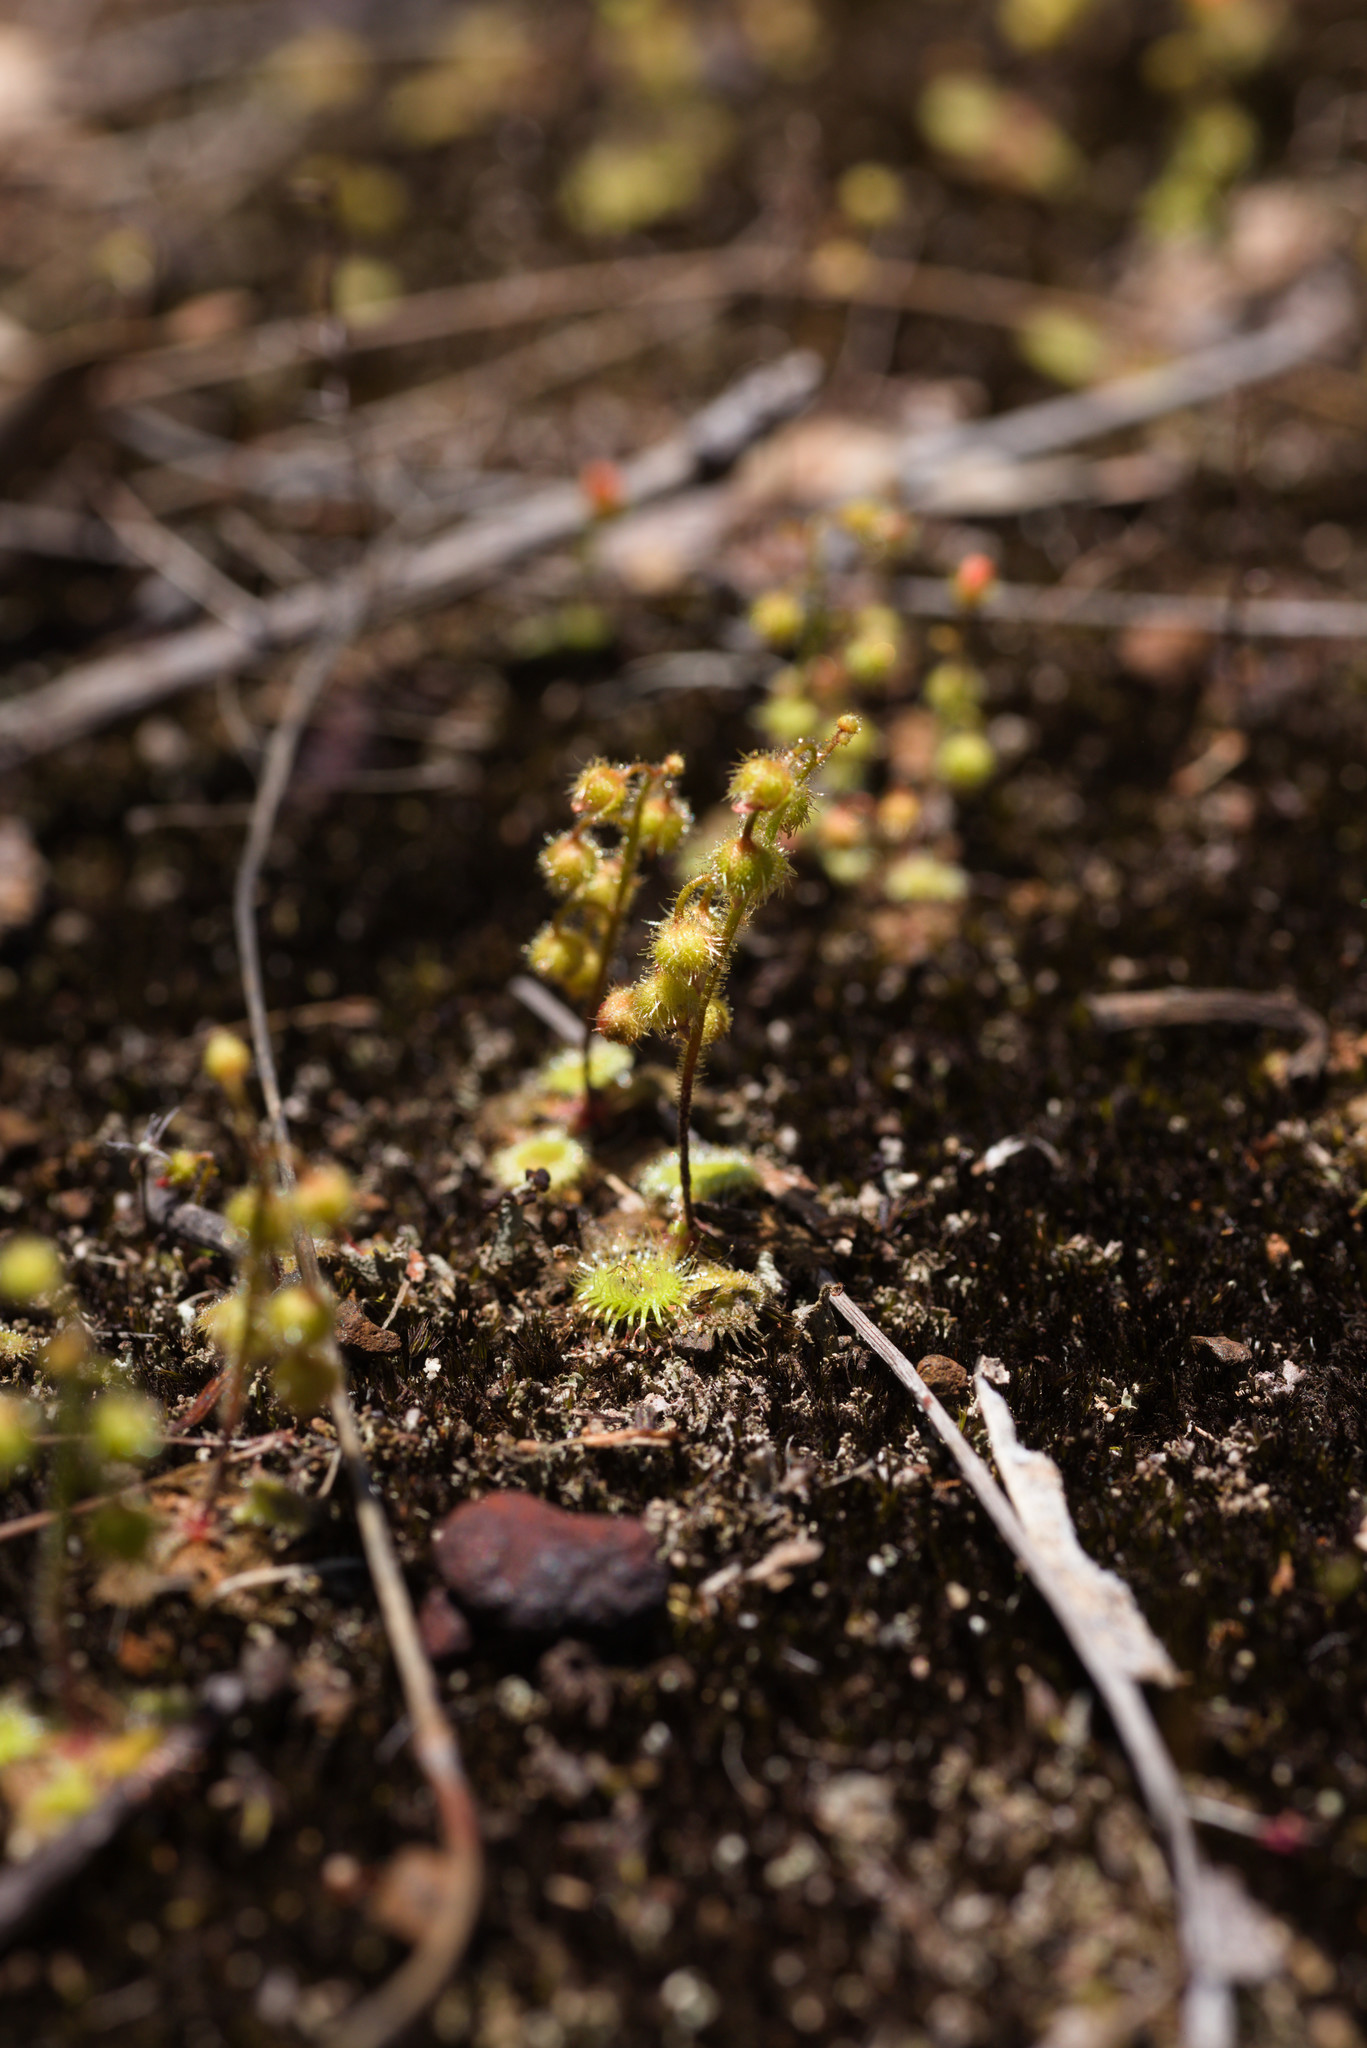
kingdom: Plantae
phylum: Tracheophyta
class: Magnoliopsida
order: Caryophyllales
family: Droseraceae
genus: Drosera
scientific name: Drosera glanduligera
